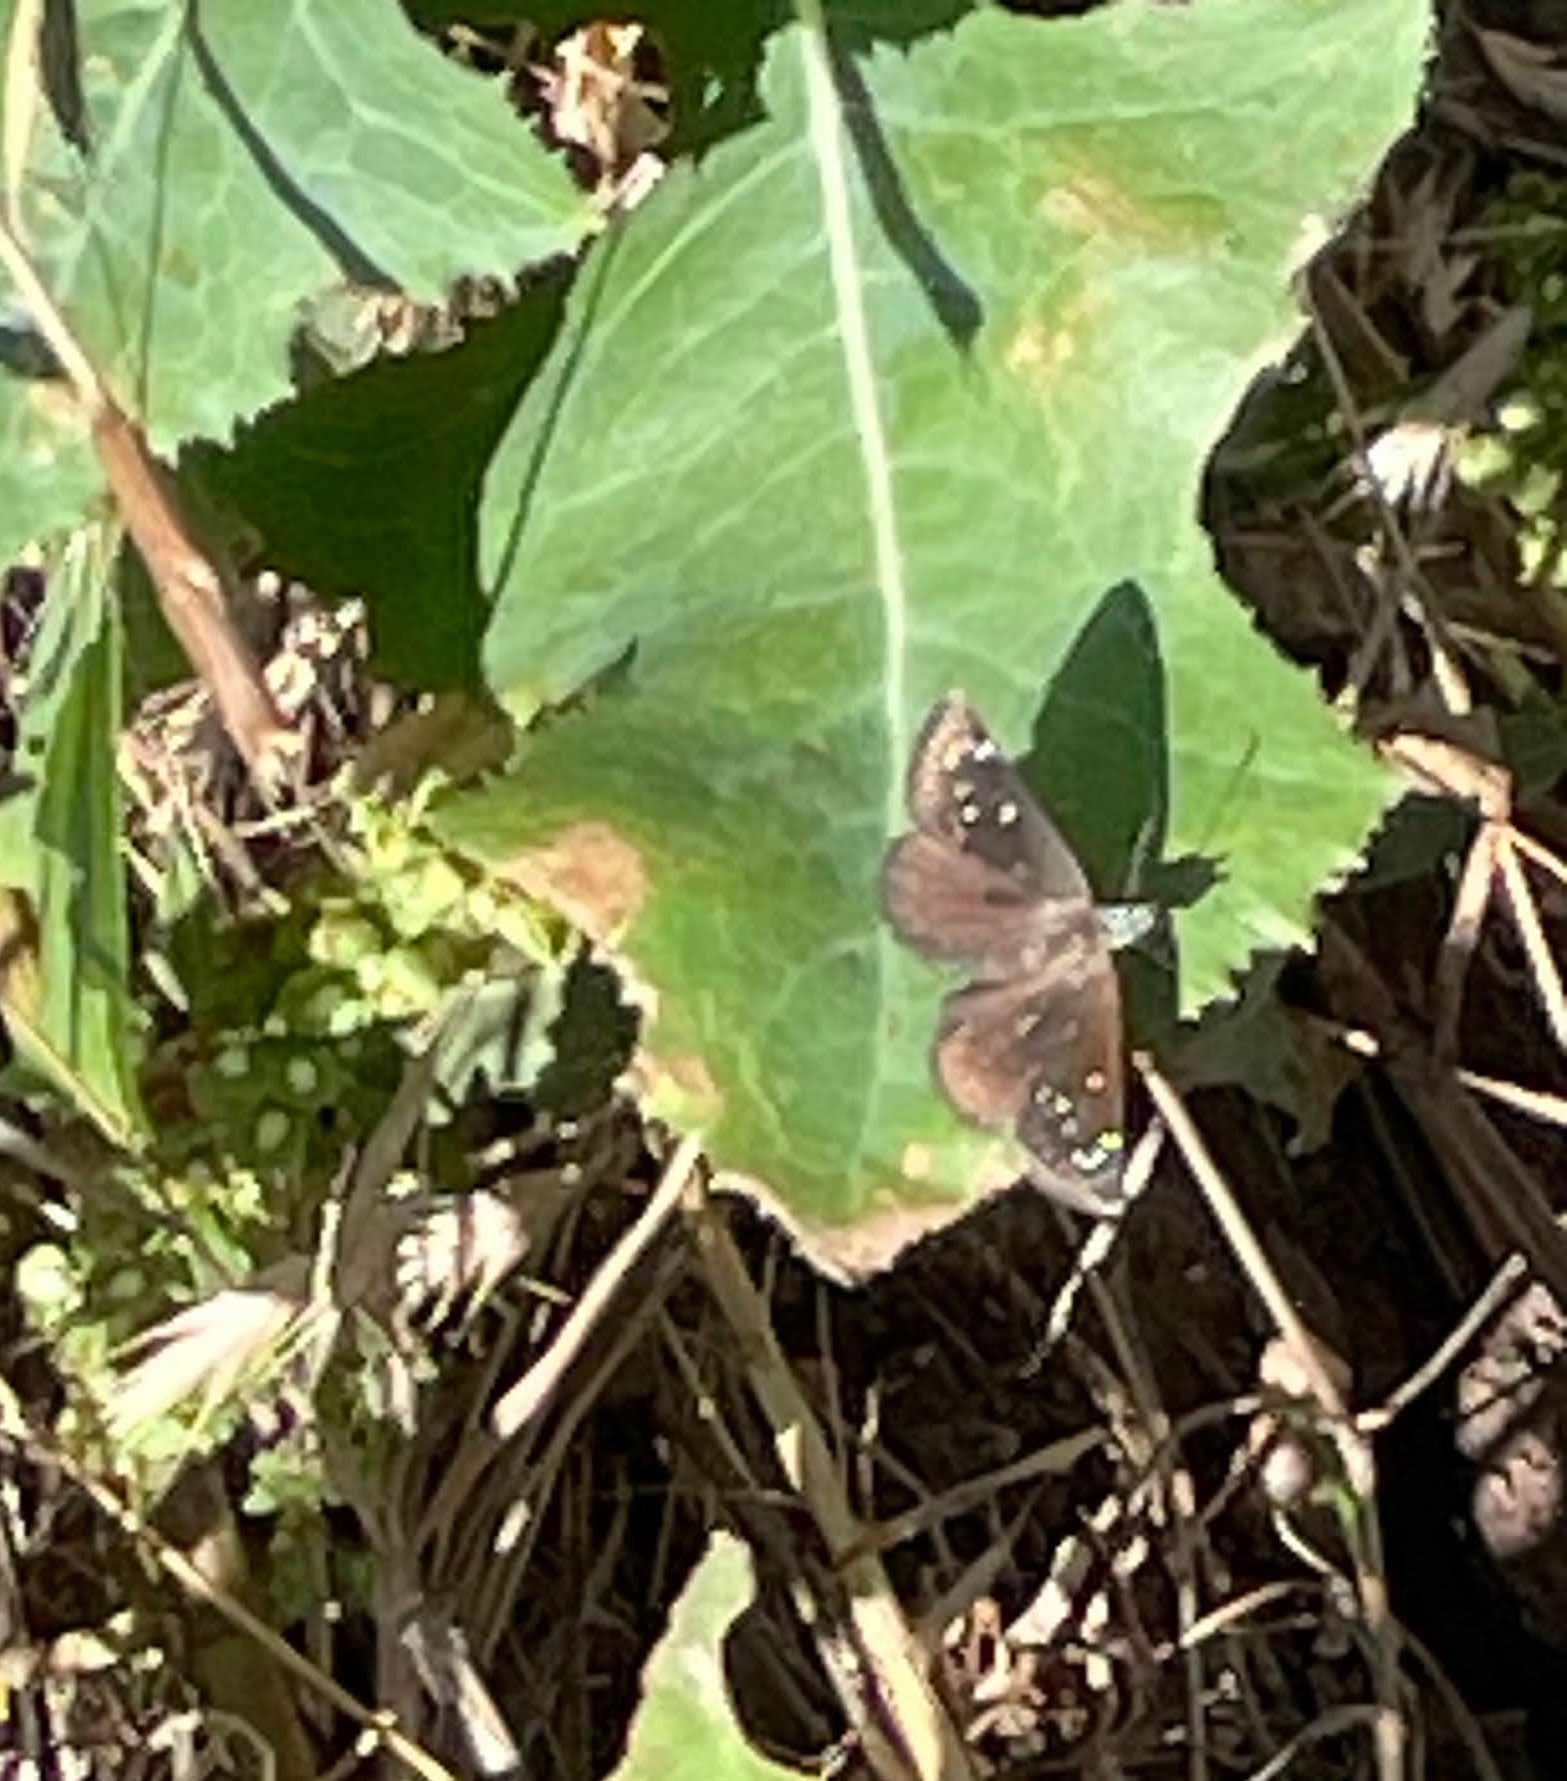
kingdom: Animalia
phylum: Arthropoda
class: Insecta
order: Lepidoptera
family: Hesperiidae
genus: Pholisora
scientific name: Pholisora catullus
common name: Common sootywing
